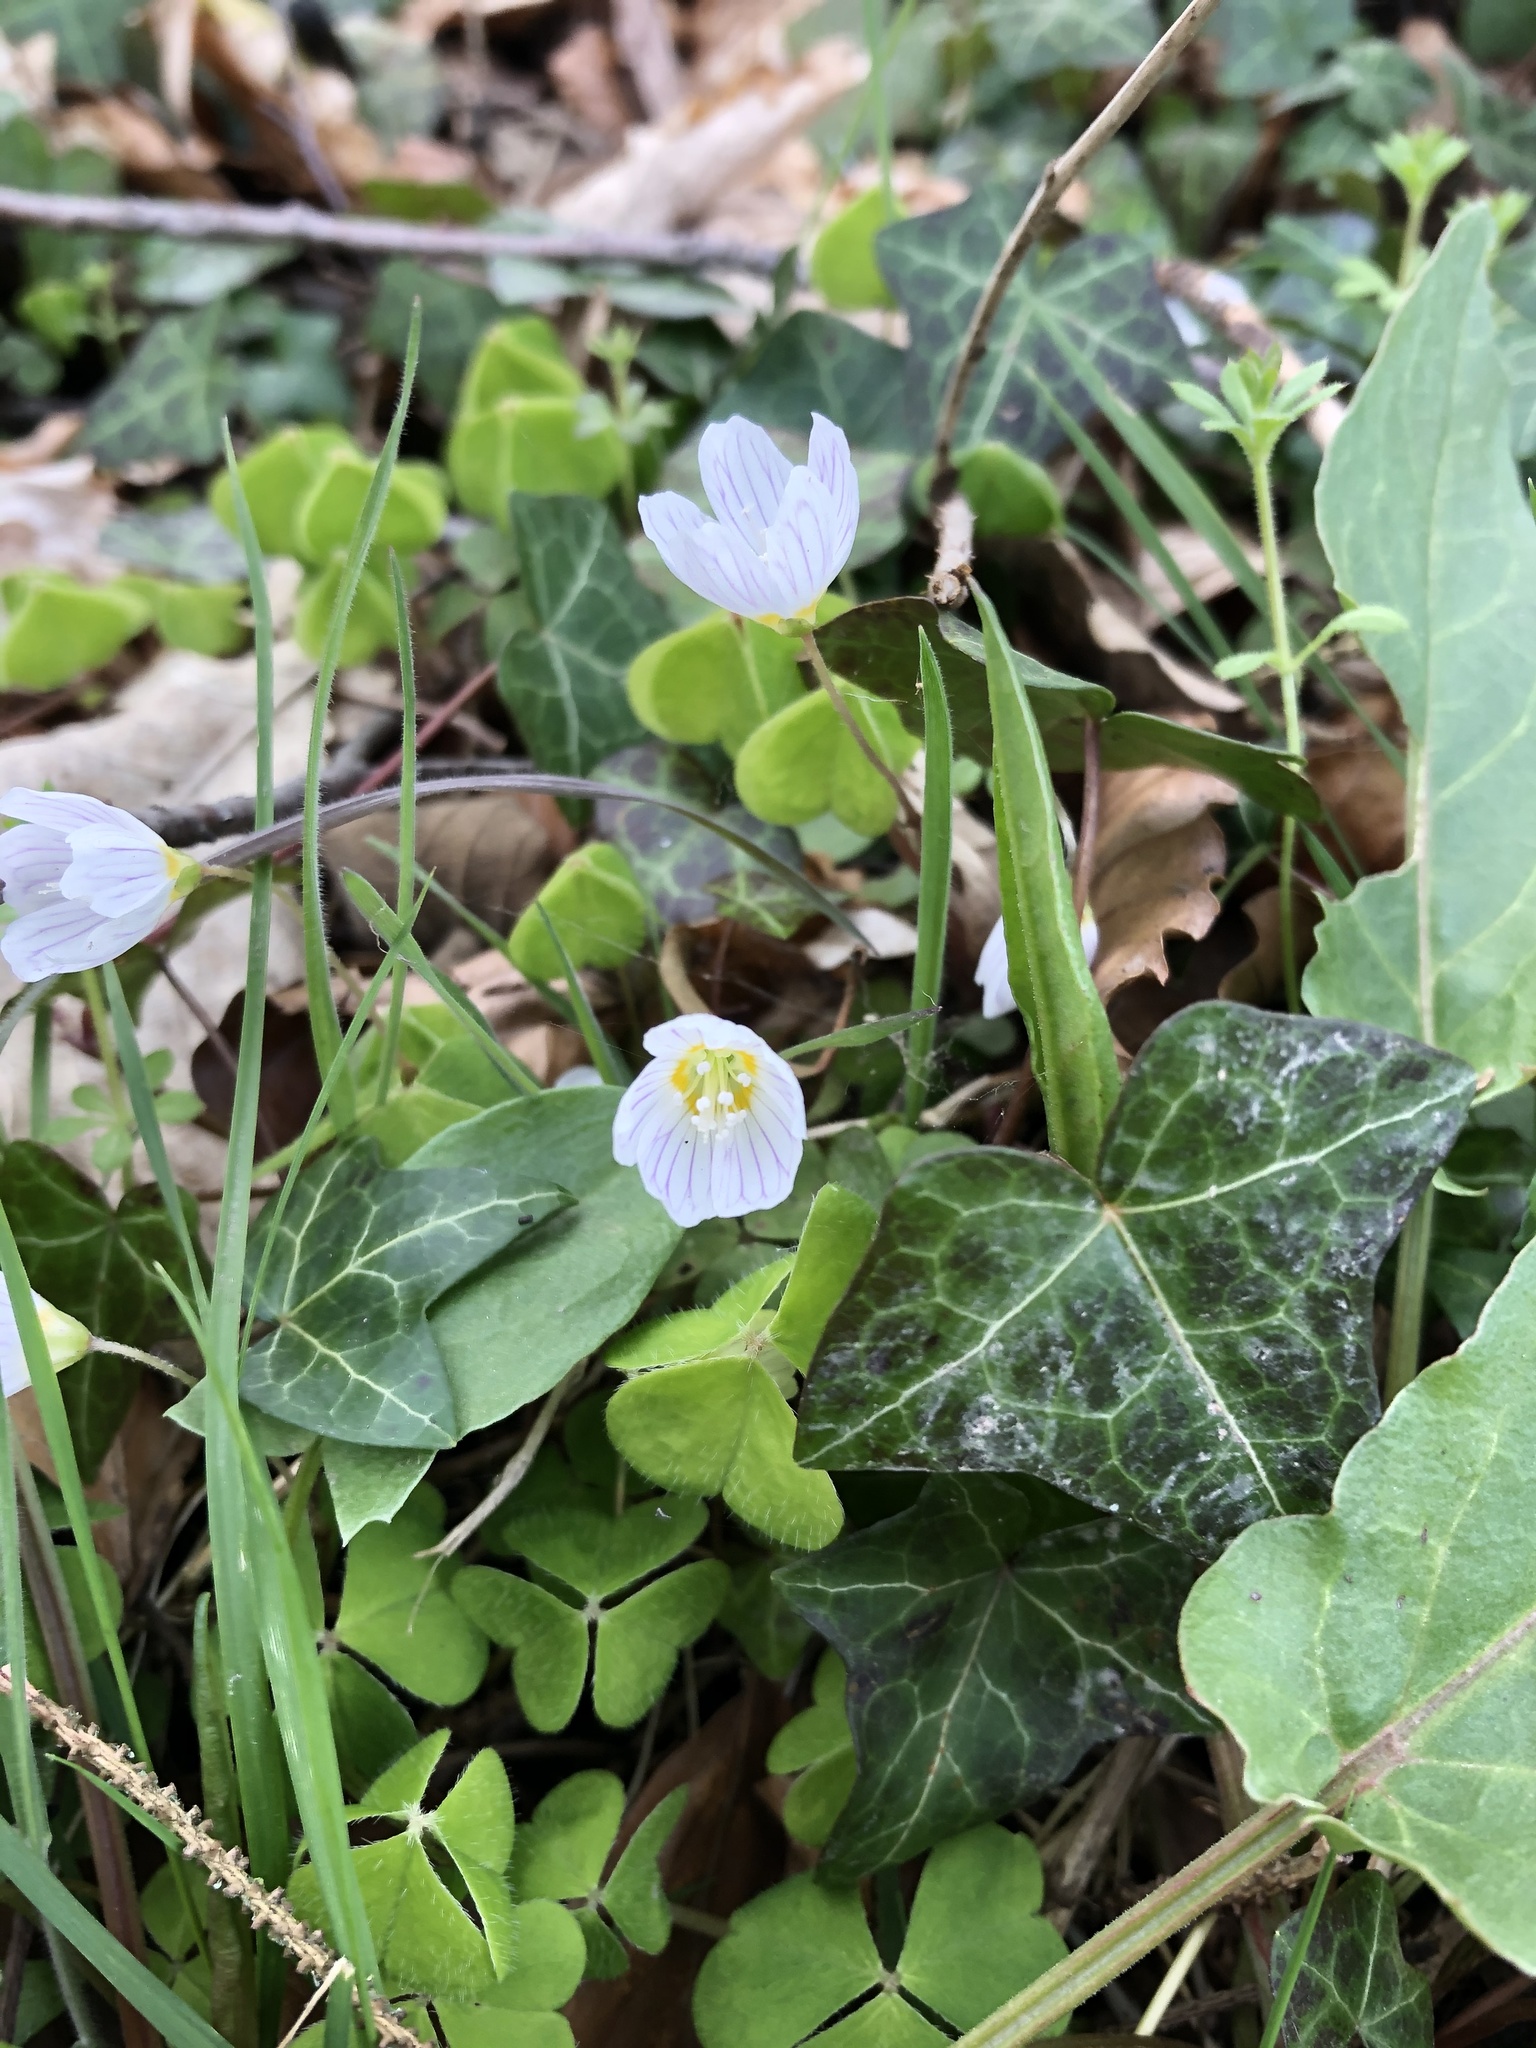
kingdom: Plantae
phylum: Tracheophyta
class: Magnoliopsida
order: Oxalidales
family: Oxalidaceae
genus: Oxalis
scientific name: Oxalis acetosella
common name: Wood-sorrel
